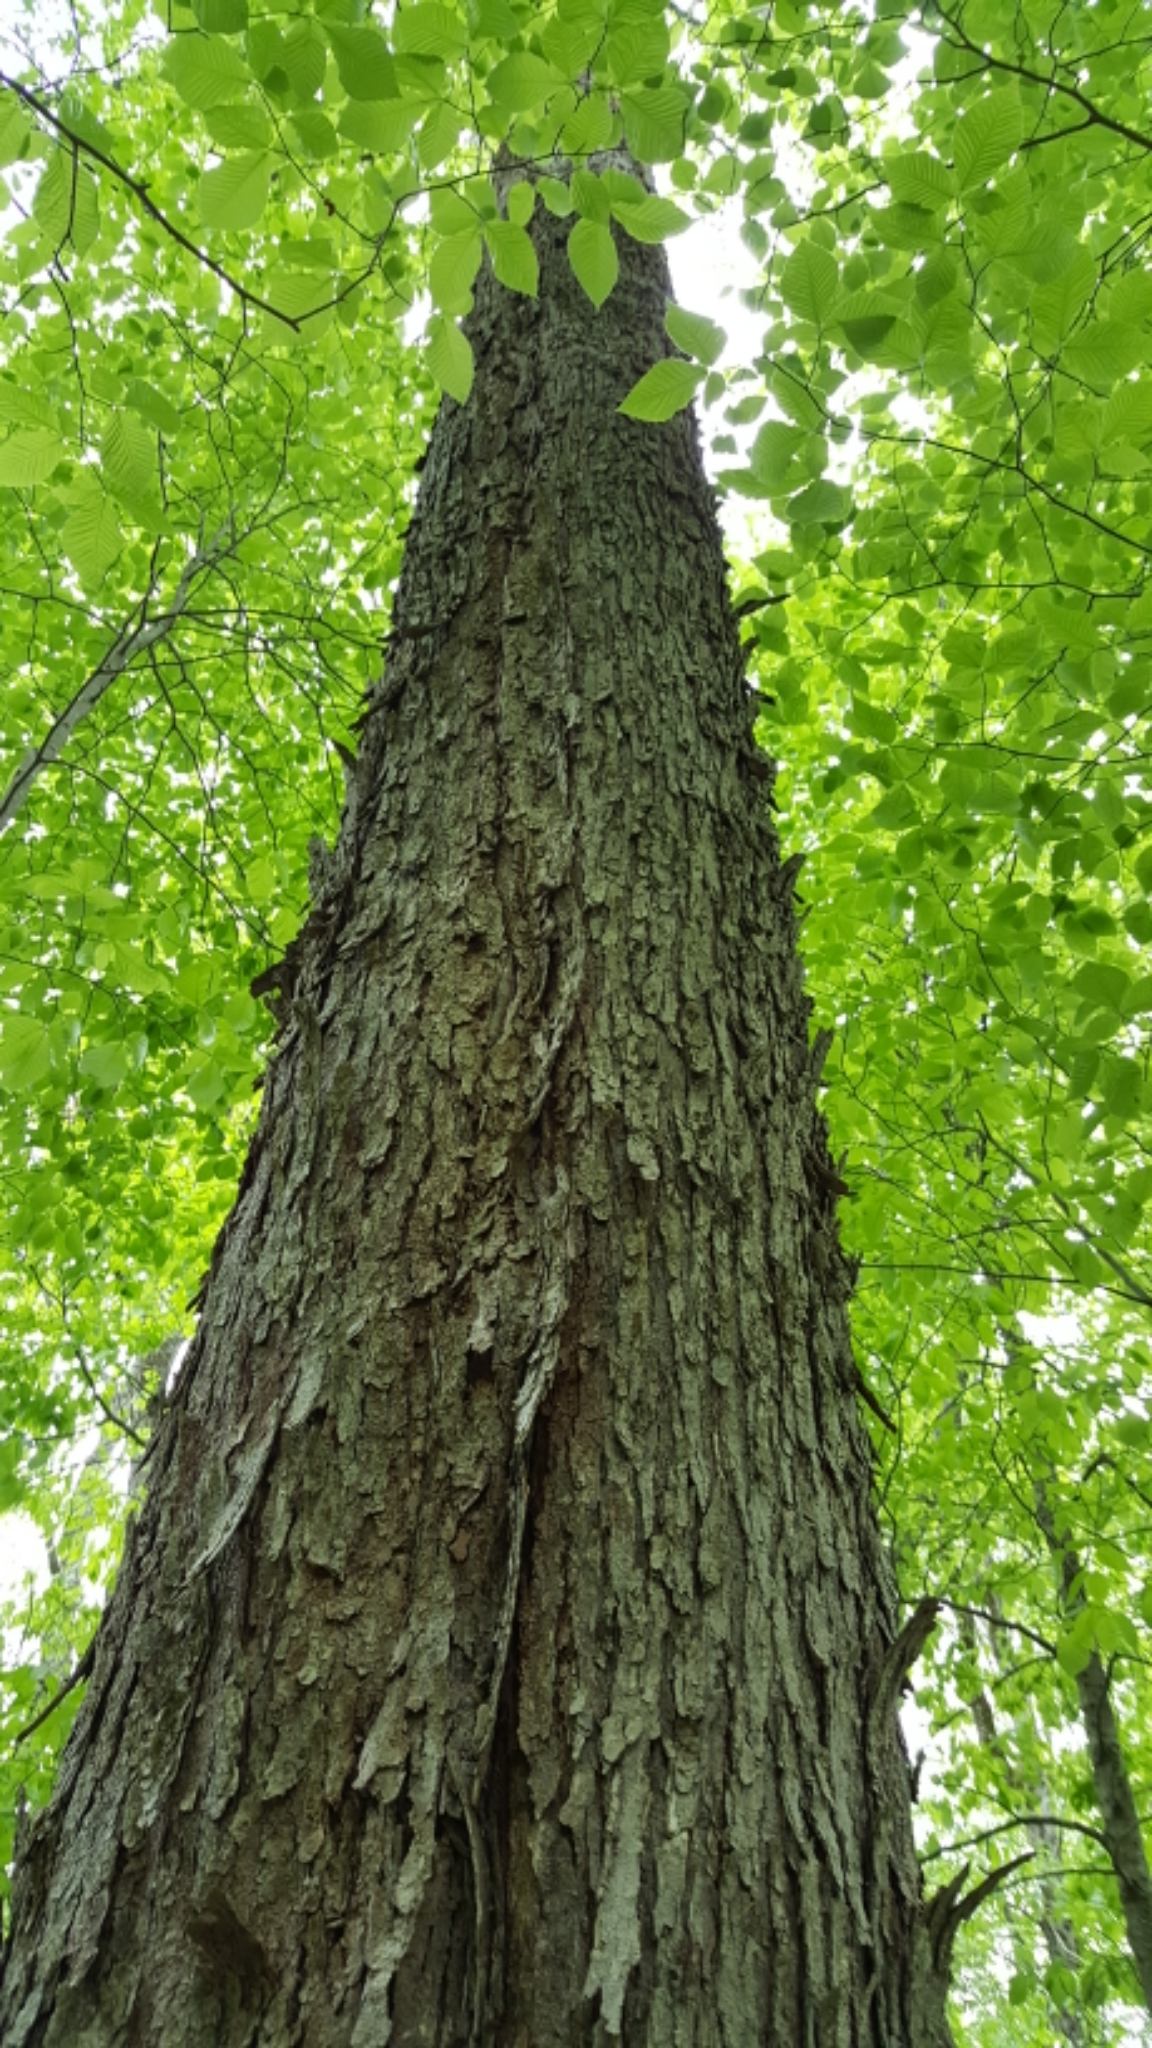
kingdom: Plantae
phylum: Tracheophyta
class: Magnoliopsida
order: Sapindales
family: Sapindaceae
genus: Acer
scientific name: Acer rubrum
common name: Red maple
